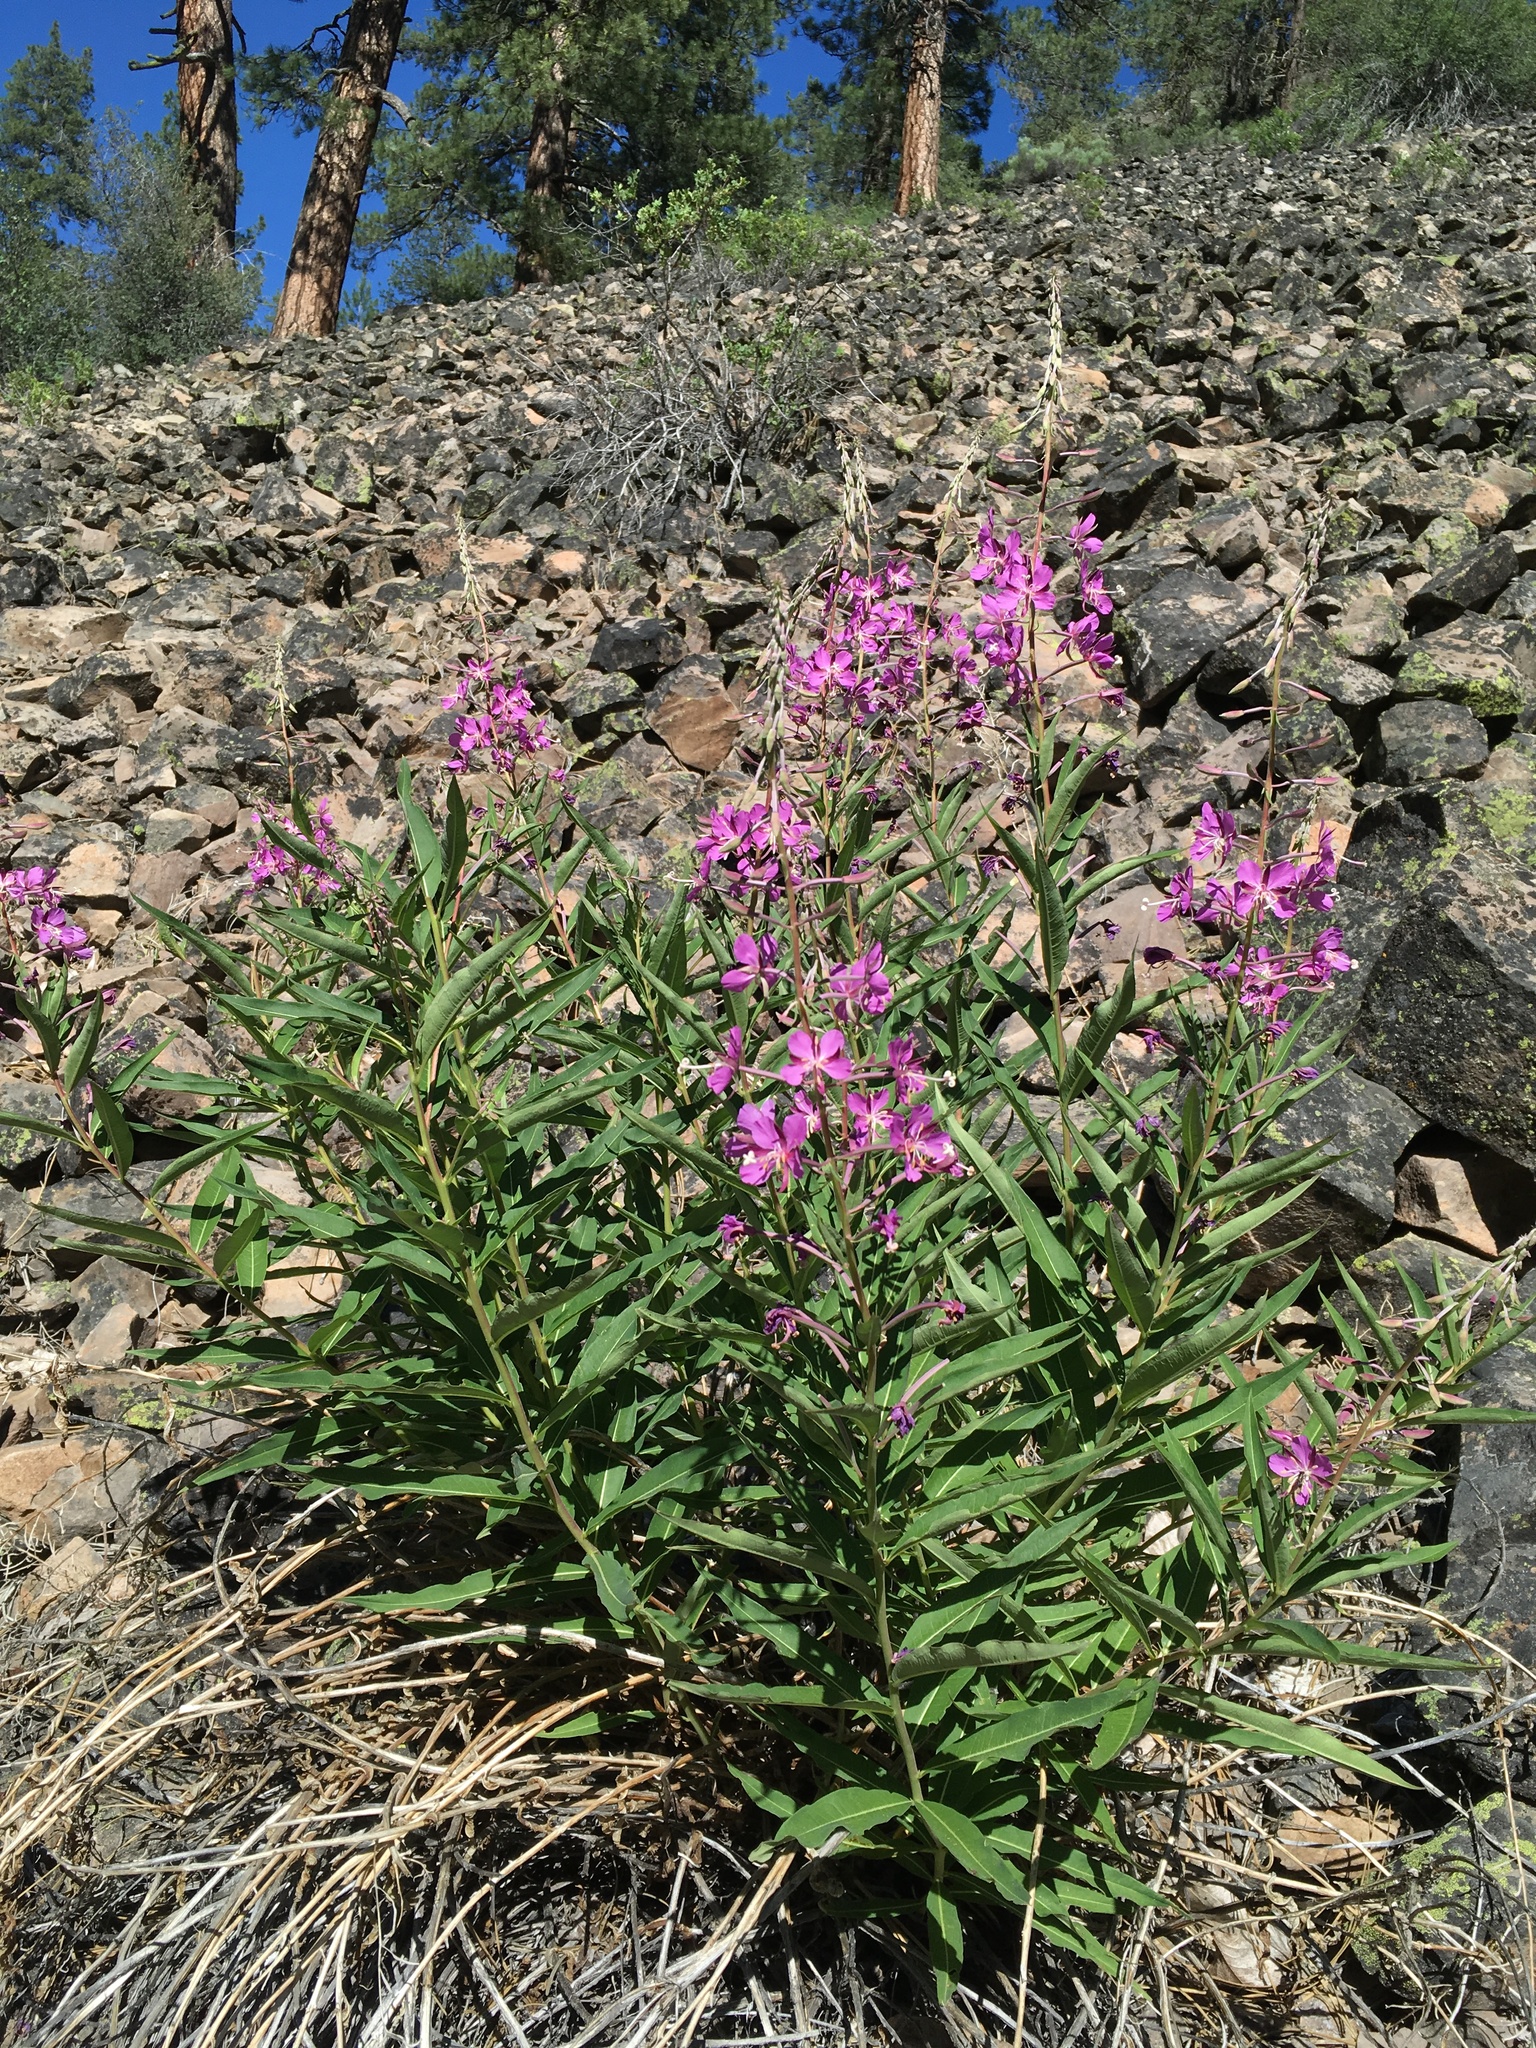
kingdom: Plantae
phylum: Tracheophyta
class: Magnoliopsida
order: Myrtales
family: Onagraceae
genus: Chamaenerion
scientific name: Chamaenerion angustifolium
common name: Fireweed
